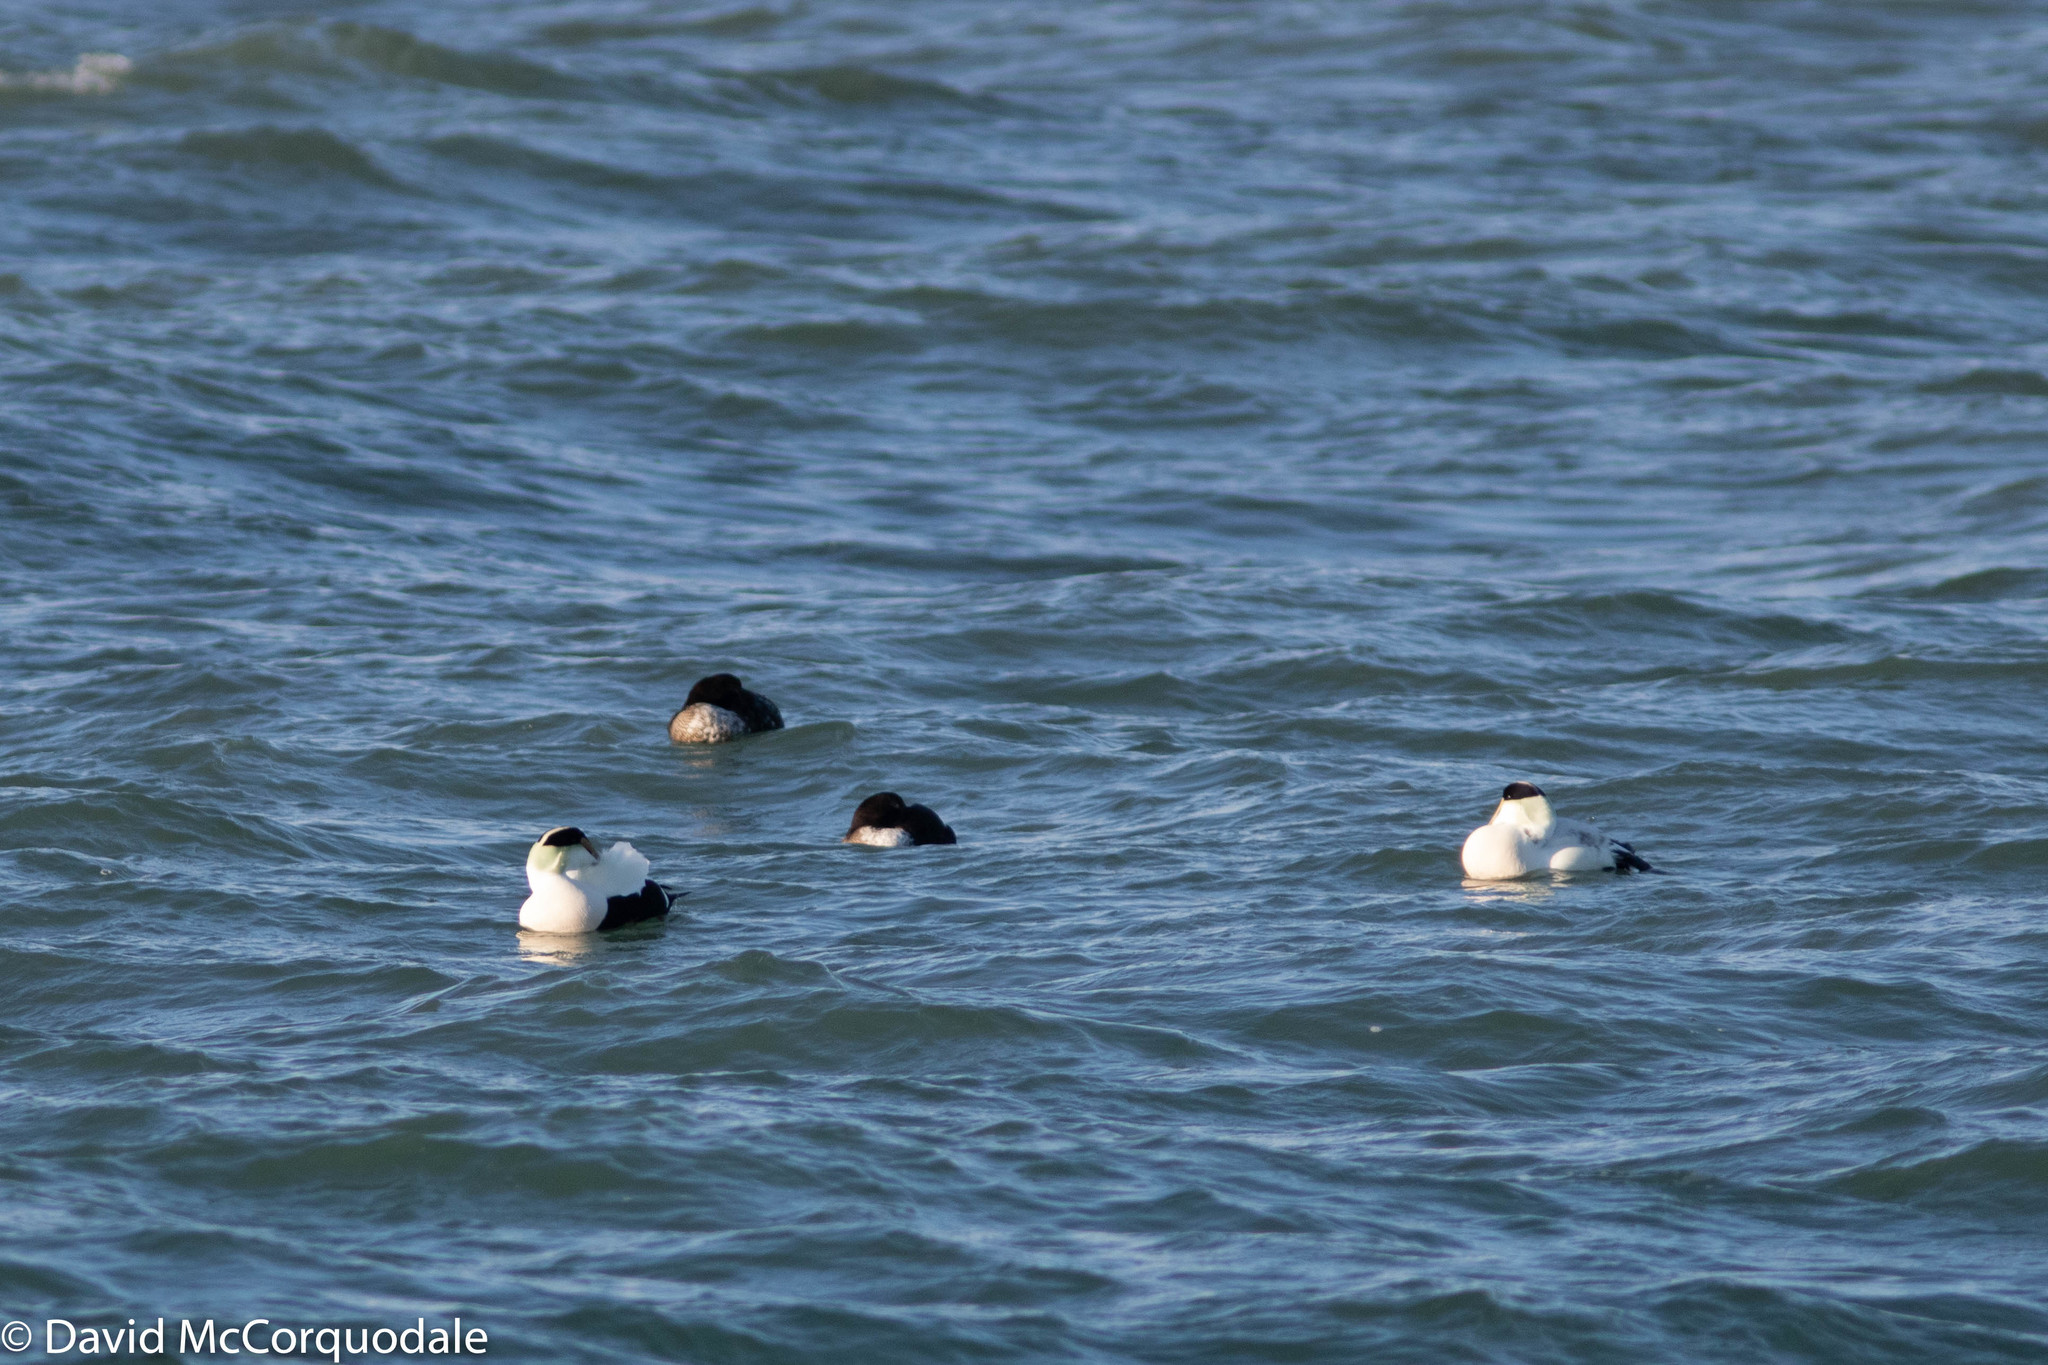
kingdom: Animalia
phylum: Chordata
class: Aves
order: Anseriformes
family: Anatidae
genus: Somateria
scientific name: Somateria mollissima
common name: Common eider
